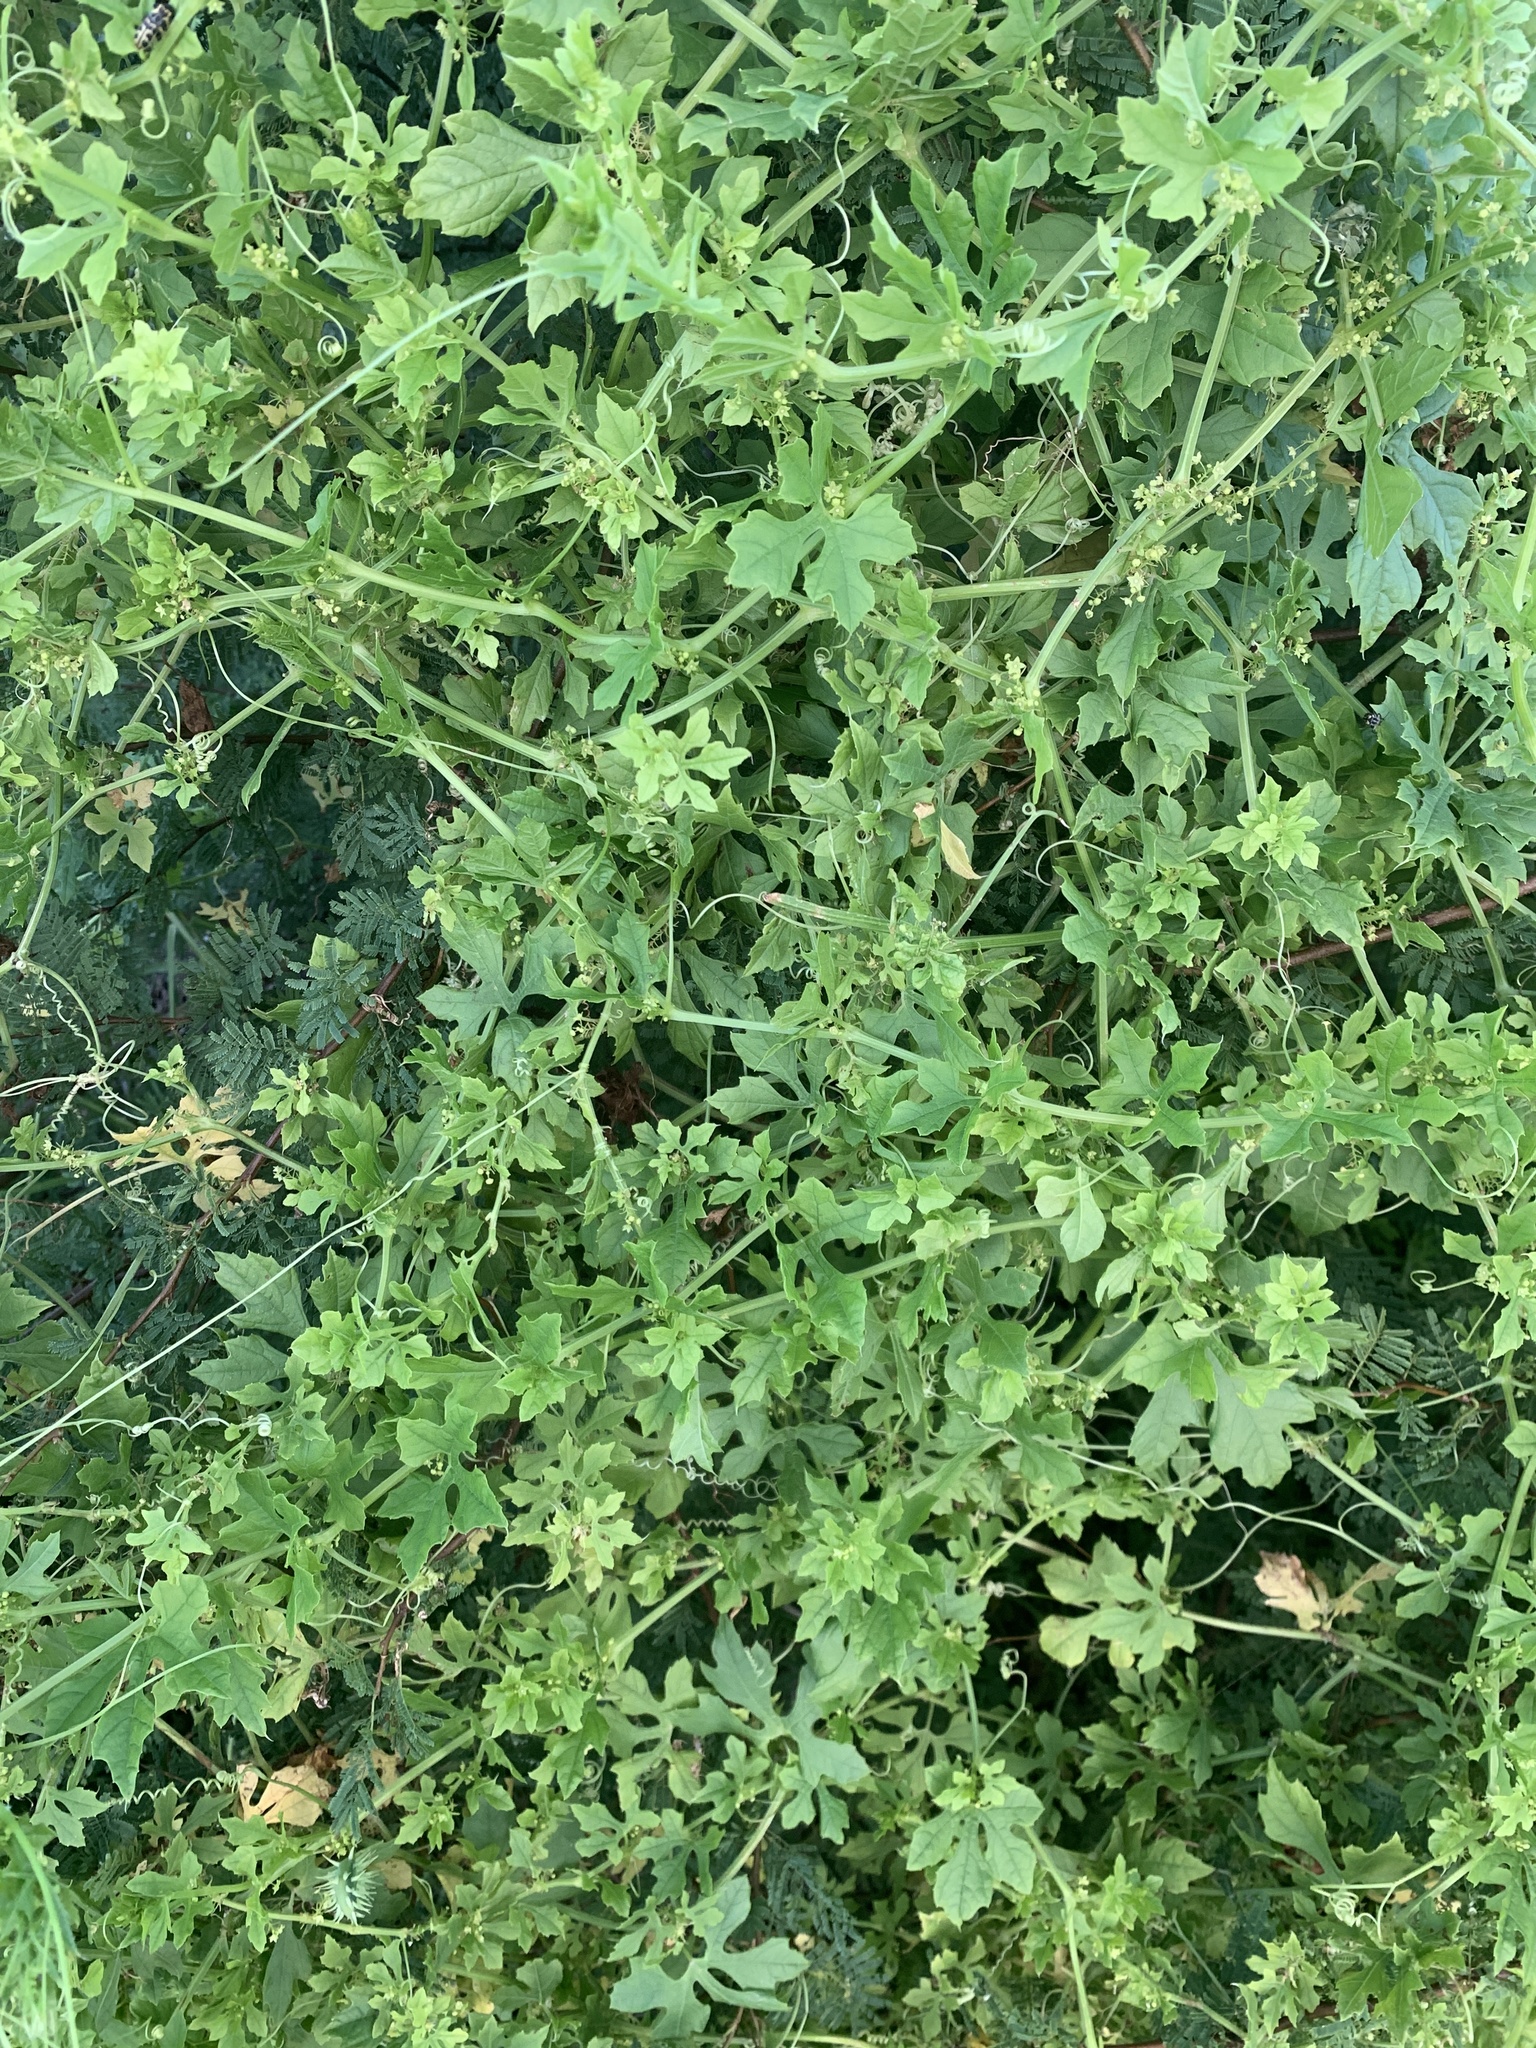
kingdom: Plantae
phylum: Tracheophyta
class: Magnoliopsida
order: Cucurbitales
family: Cucurbitaceae
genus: Cyclanthera
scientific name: Cyclanthera hystrix
